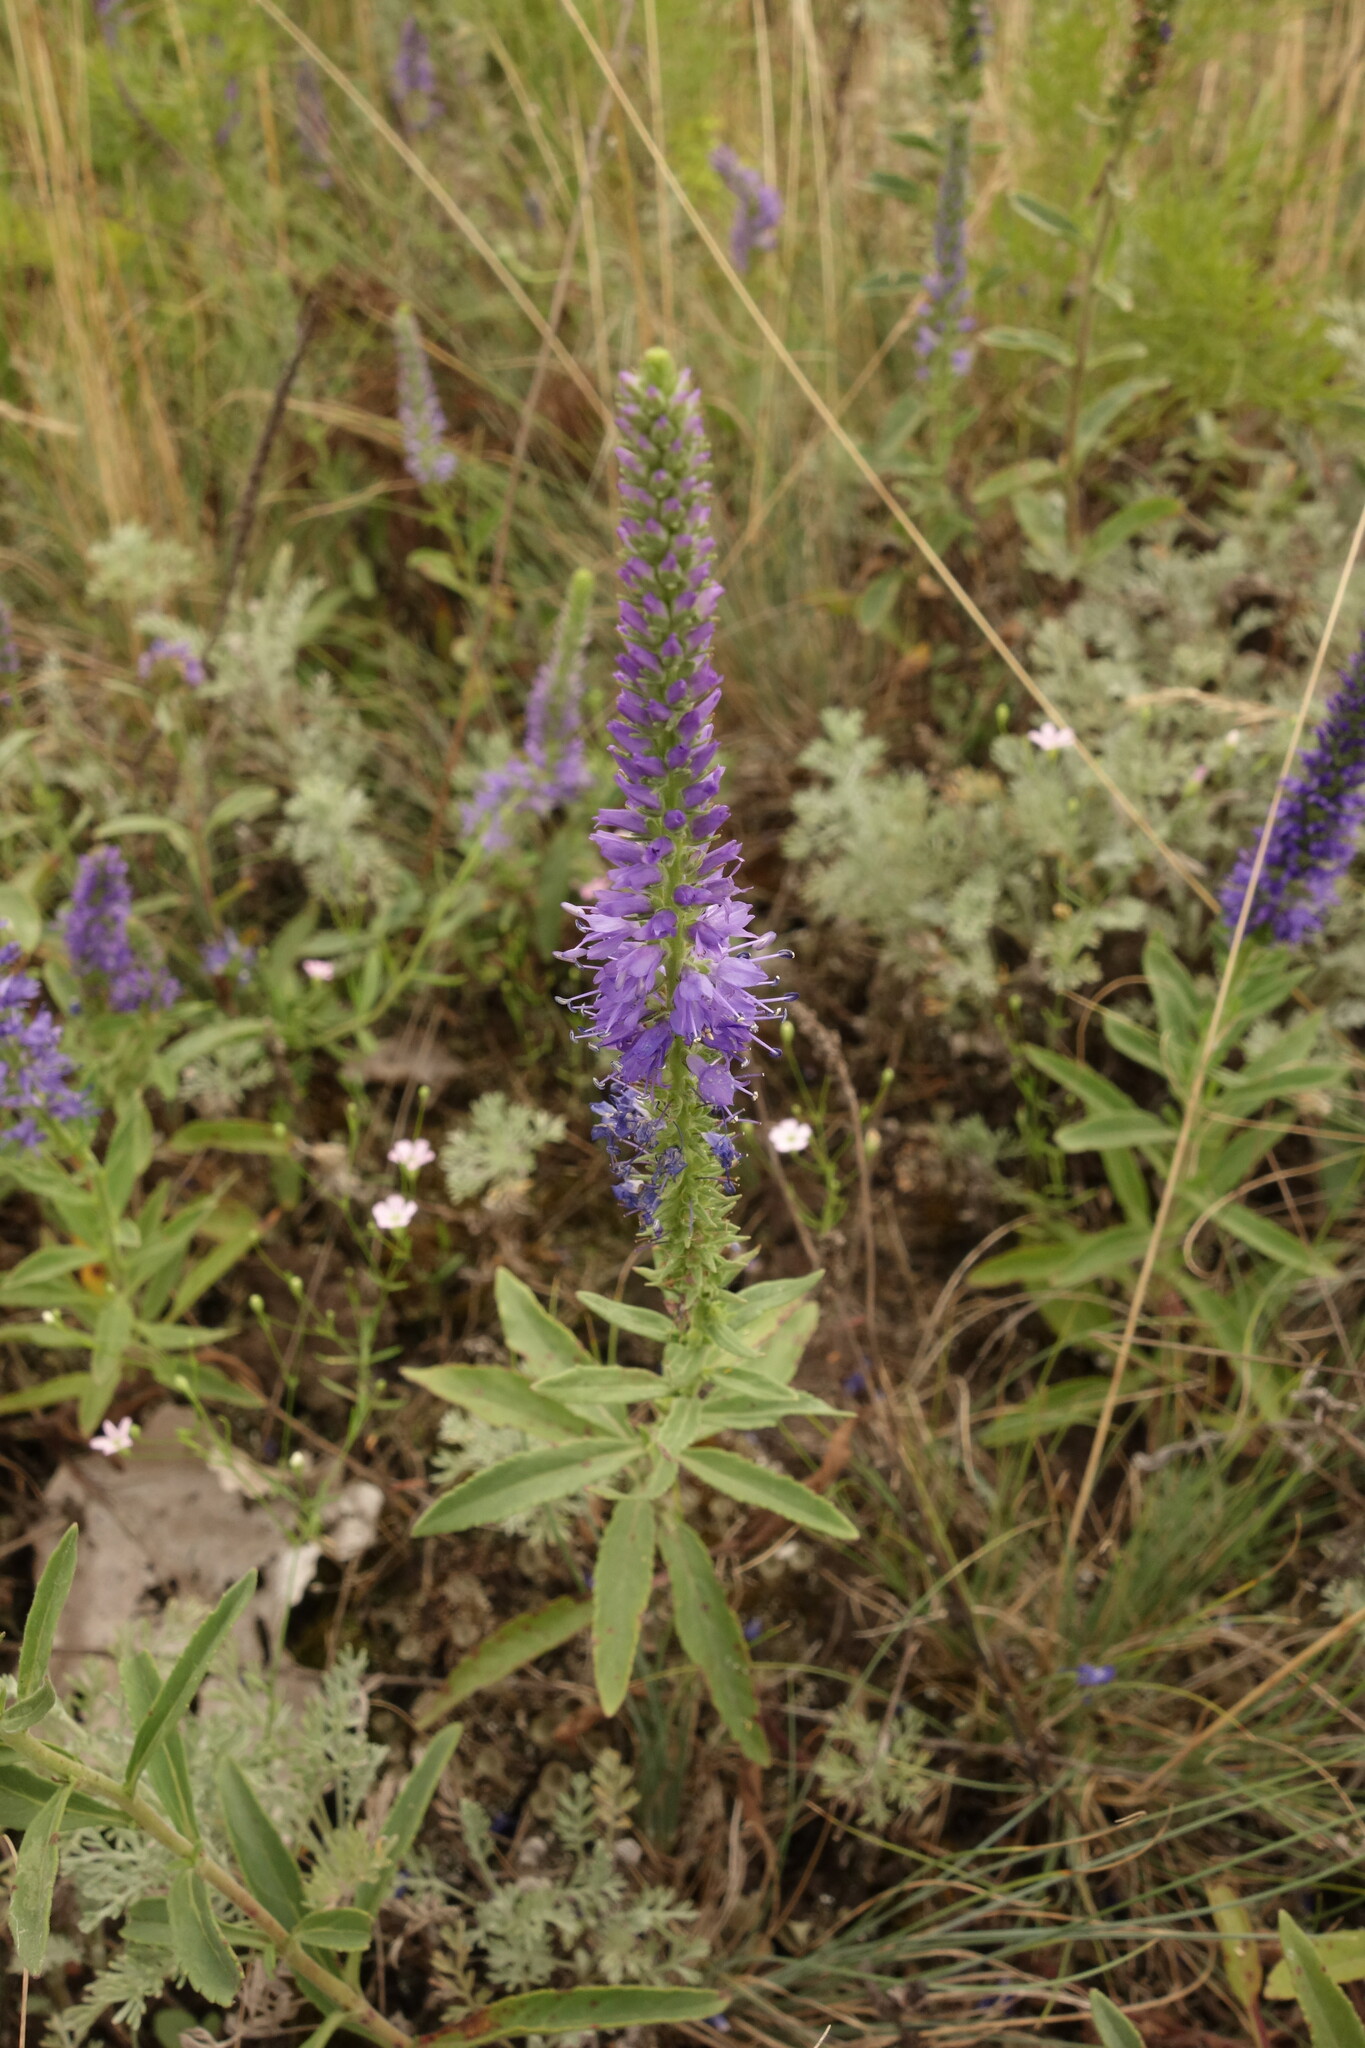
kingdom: Plantae
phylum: Tracheophyta
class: Magnoliopsida
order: Lamiales
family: Plantaginaceae
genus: Veronica
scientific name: Veronica spicata
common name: Spiked speedwell
